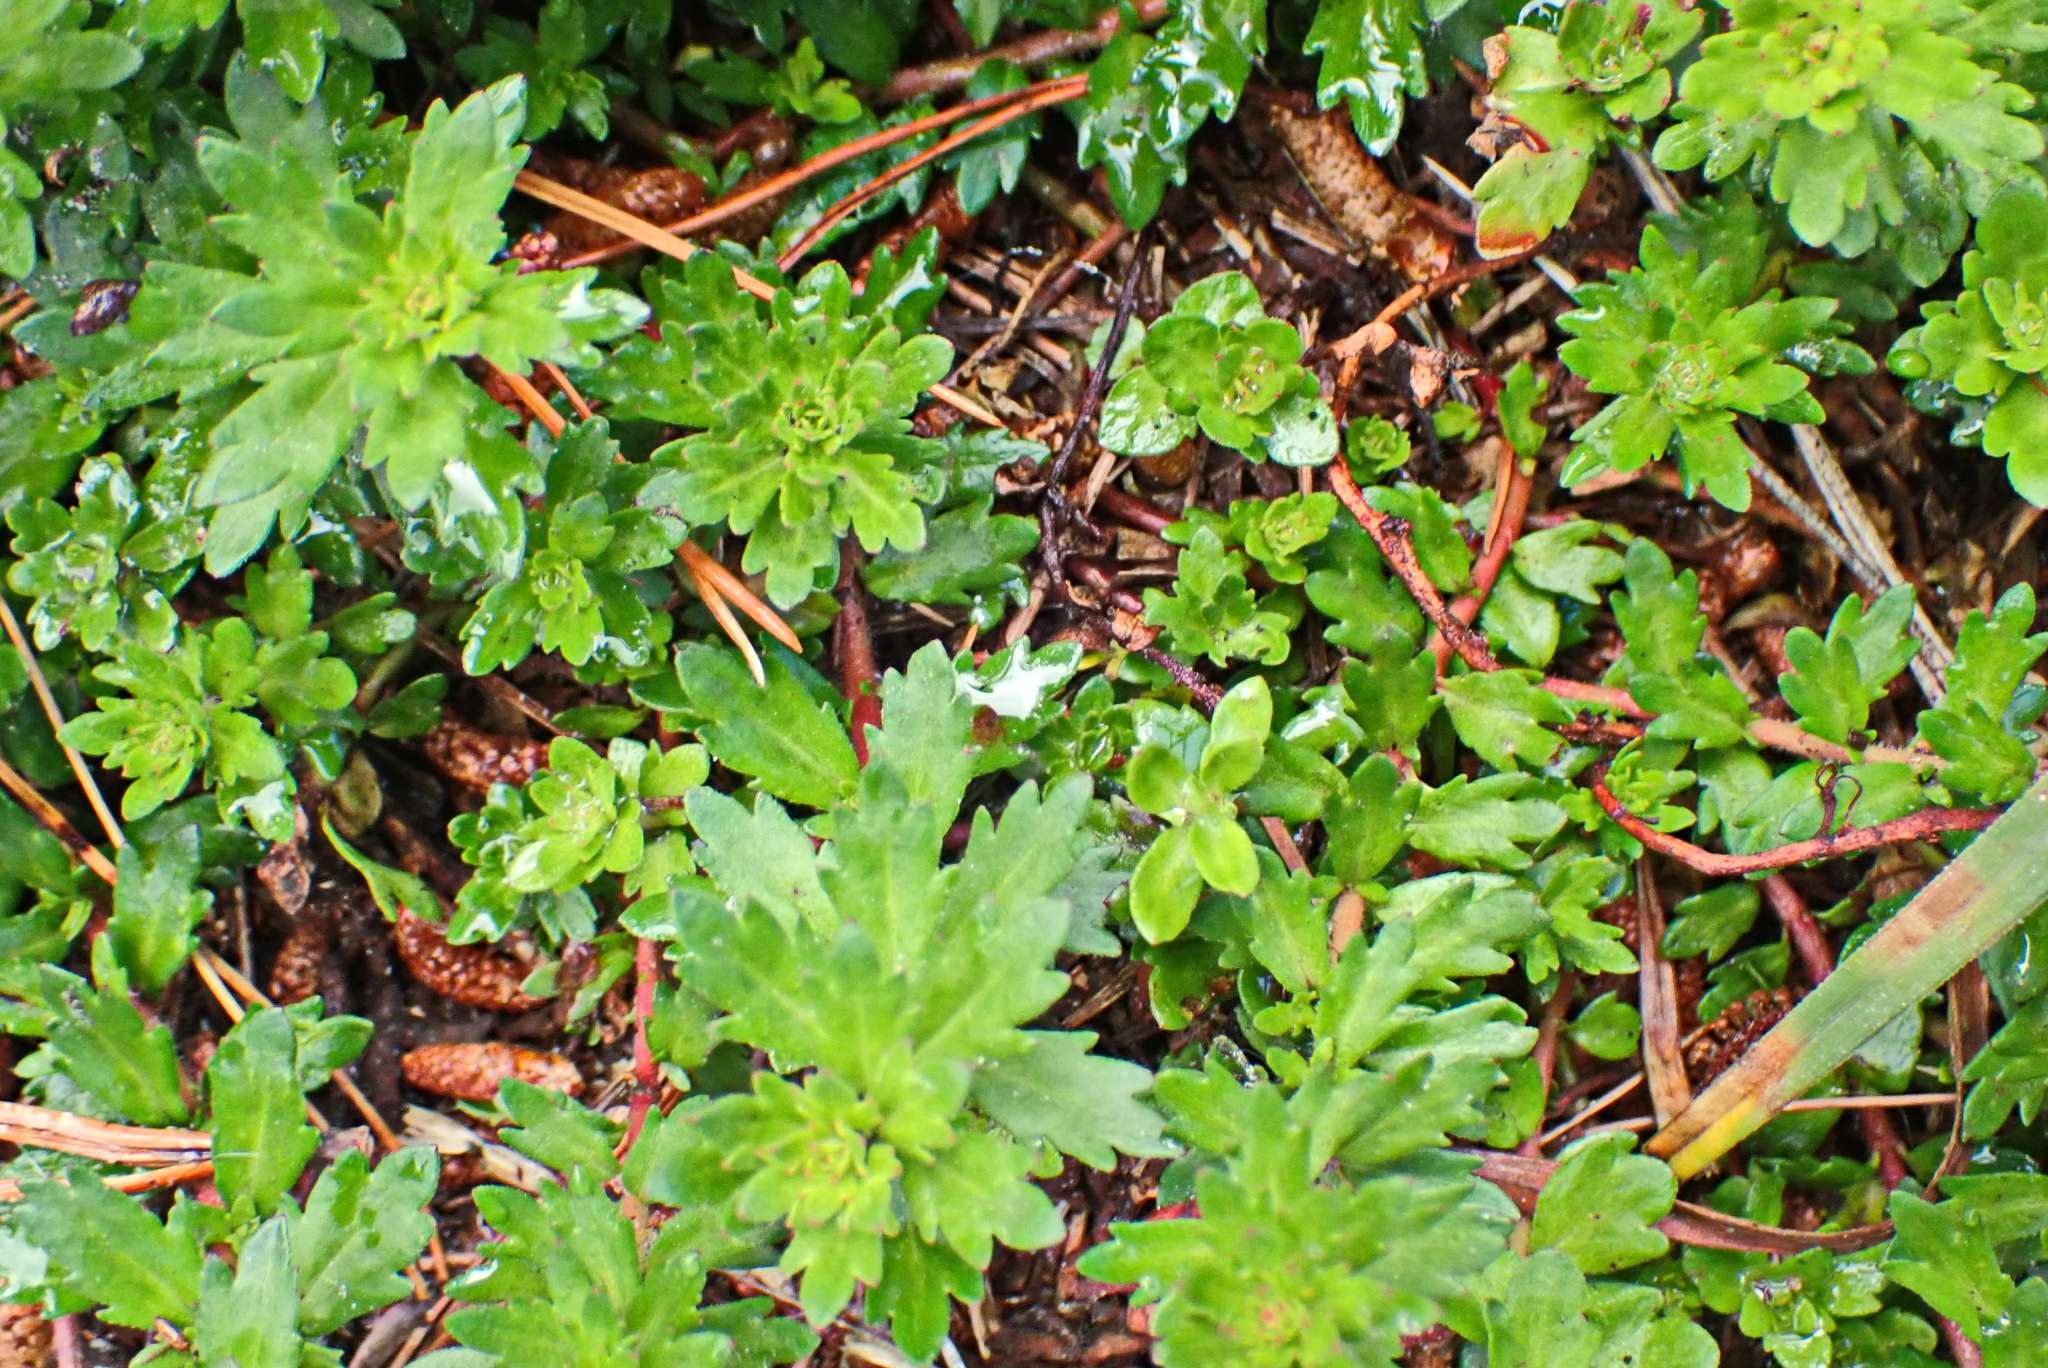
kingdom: Plantae
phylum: Tracheophyta
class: Magnoliopsida
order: Saxifragales
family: Haloragaceae
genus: Laurembergia
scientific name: Laurembergia repens
